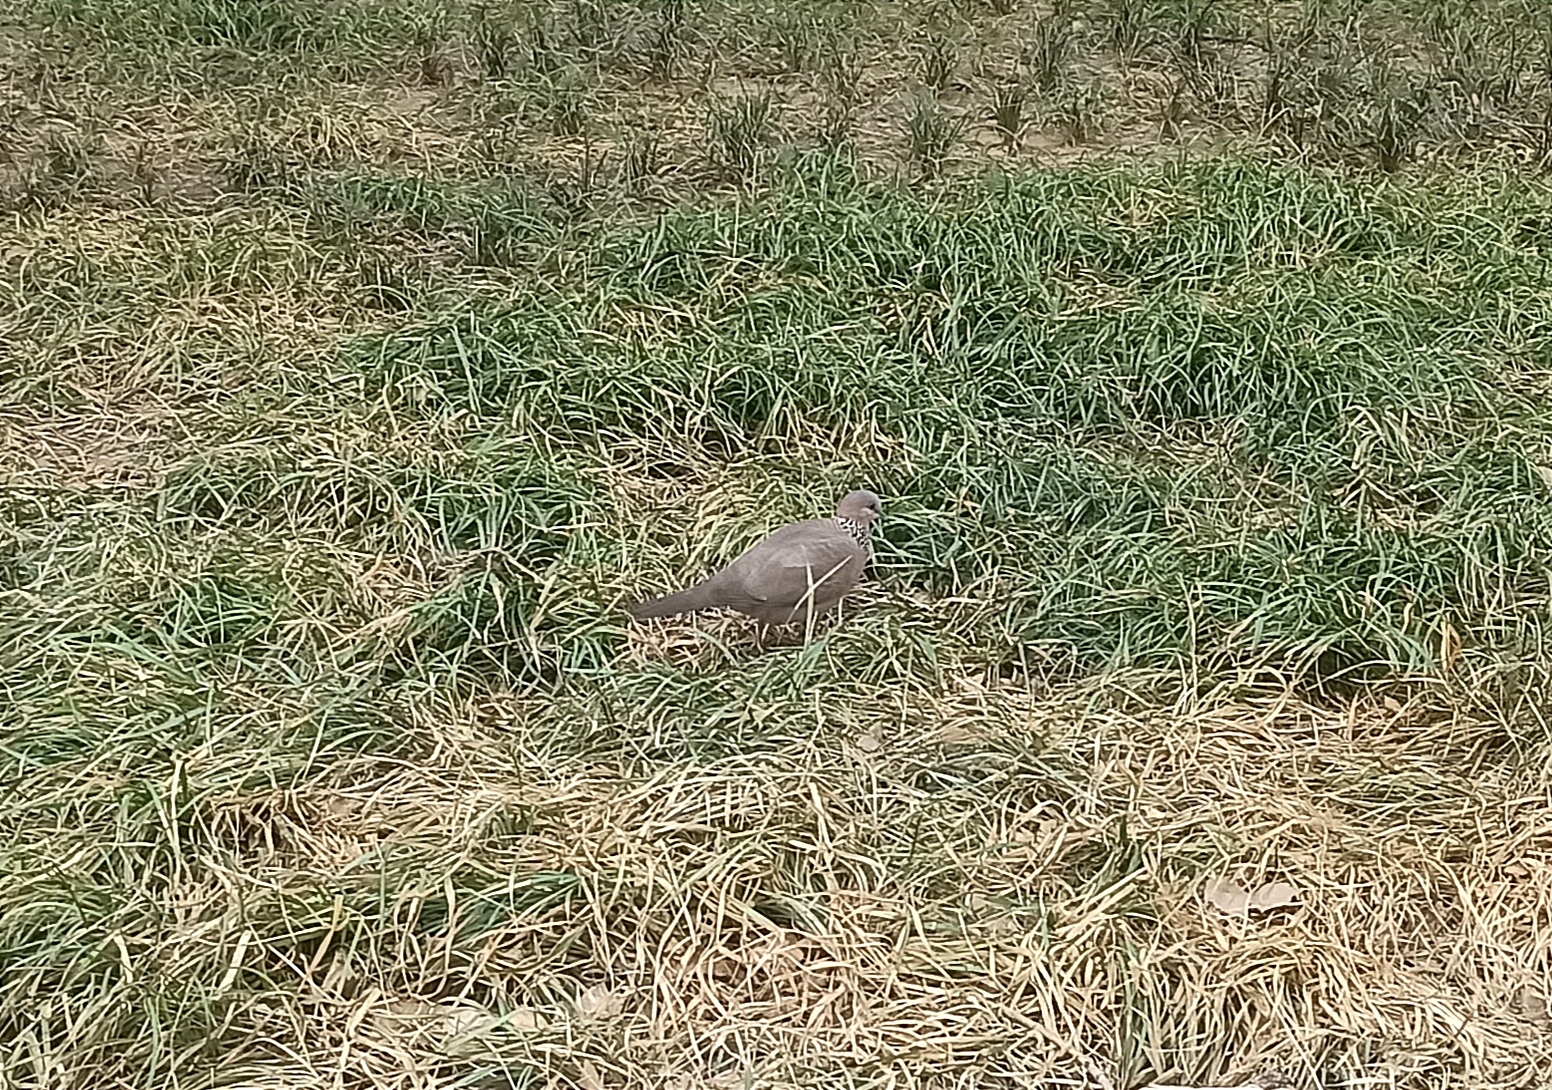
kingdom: Animalia
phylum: Chordata
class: Aves
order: Columbiformes
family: Columbidae
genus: Spilopelia
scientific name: Spilopelia chinensis
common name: Spotted dove
